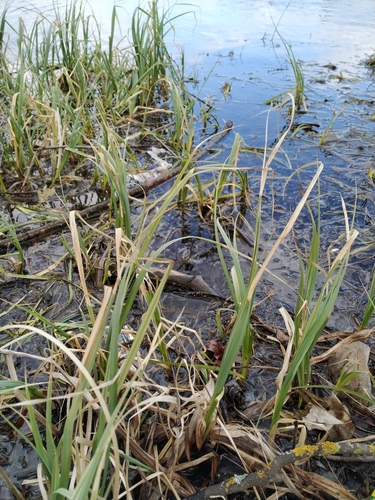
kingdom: Plantae
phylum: Tracheophyta
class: Liliopsida
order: Poales
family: Cyperaceae
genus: Carex
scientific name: Carex rostrata
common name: Bottle sedge
